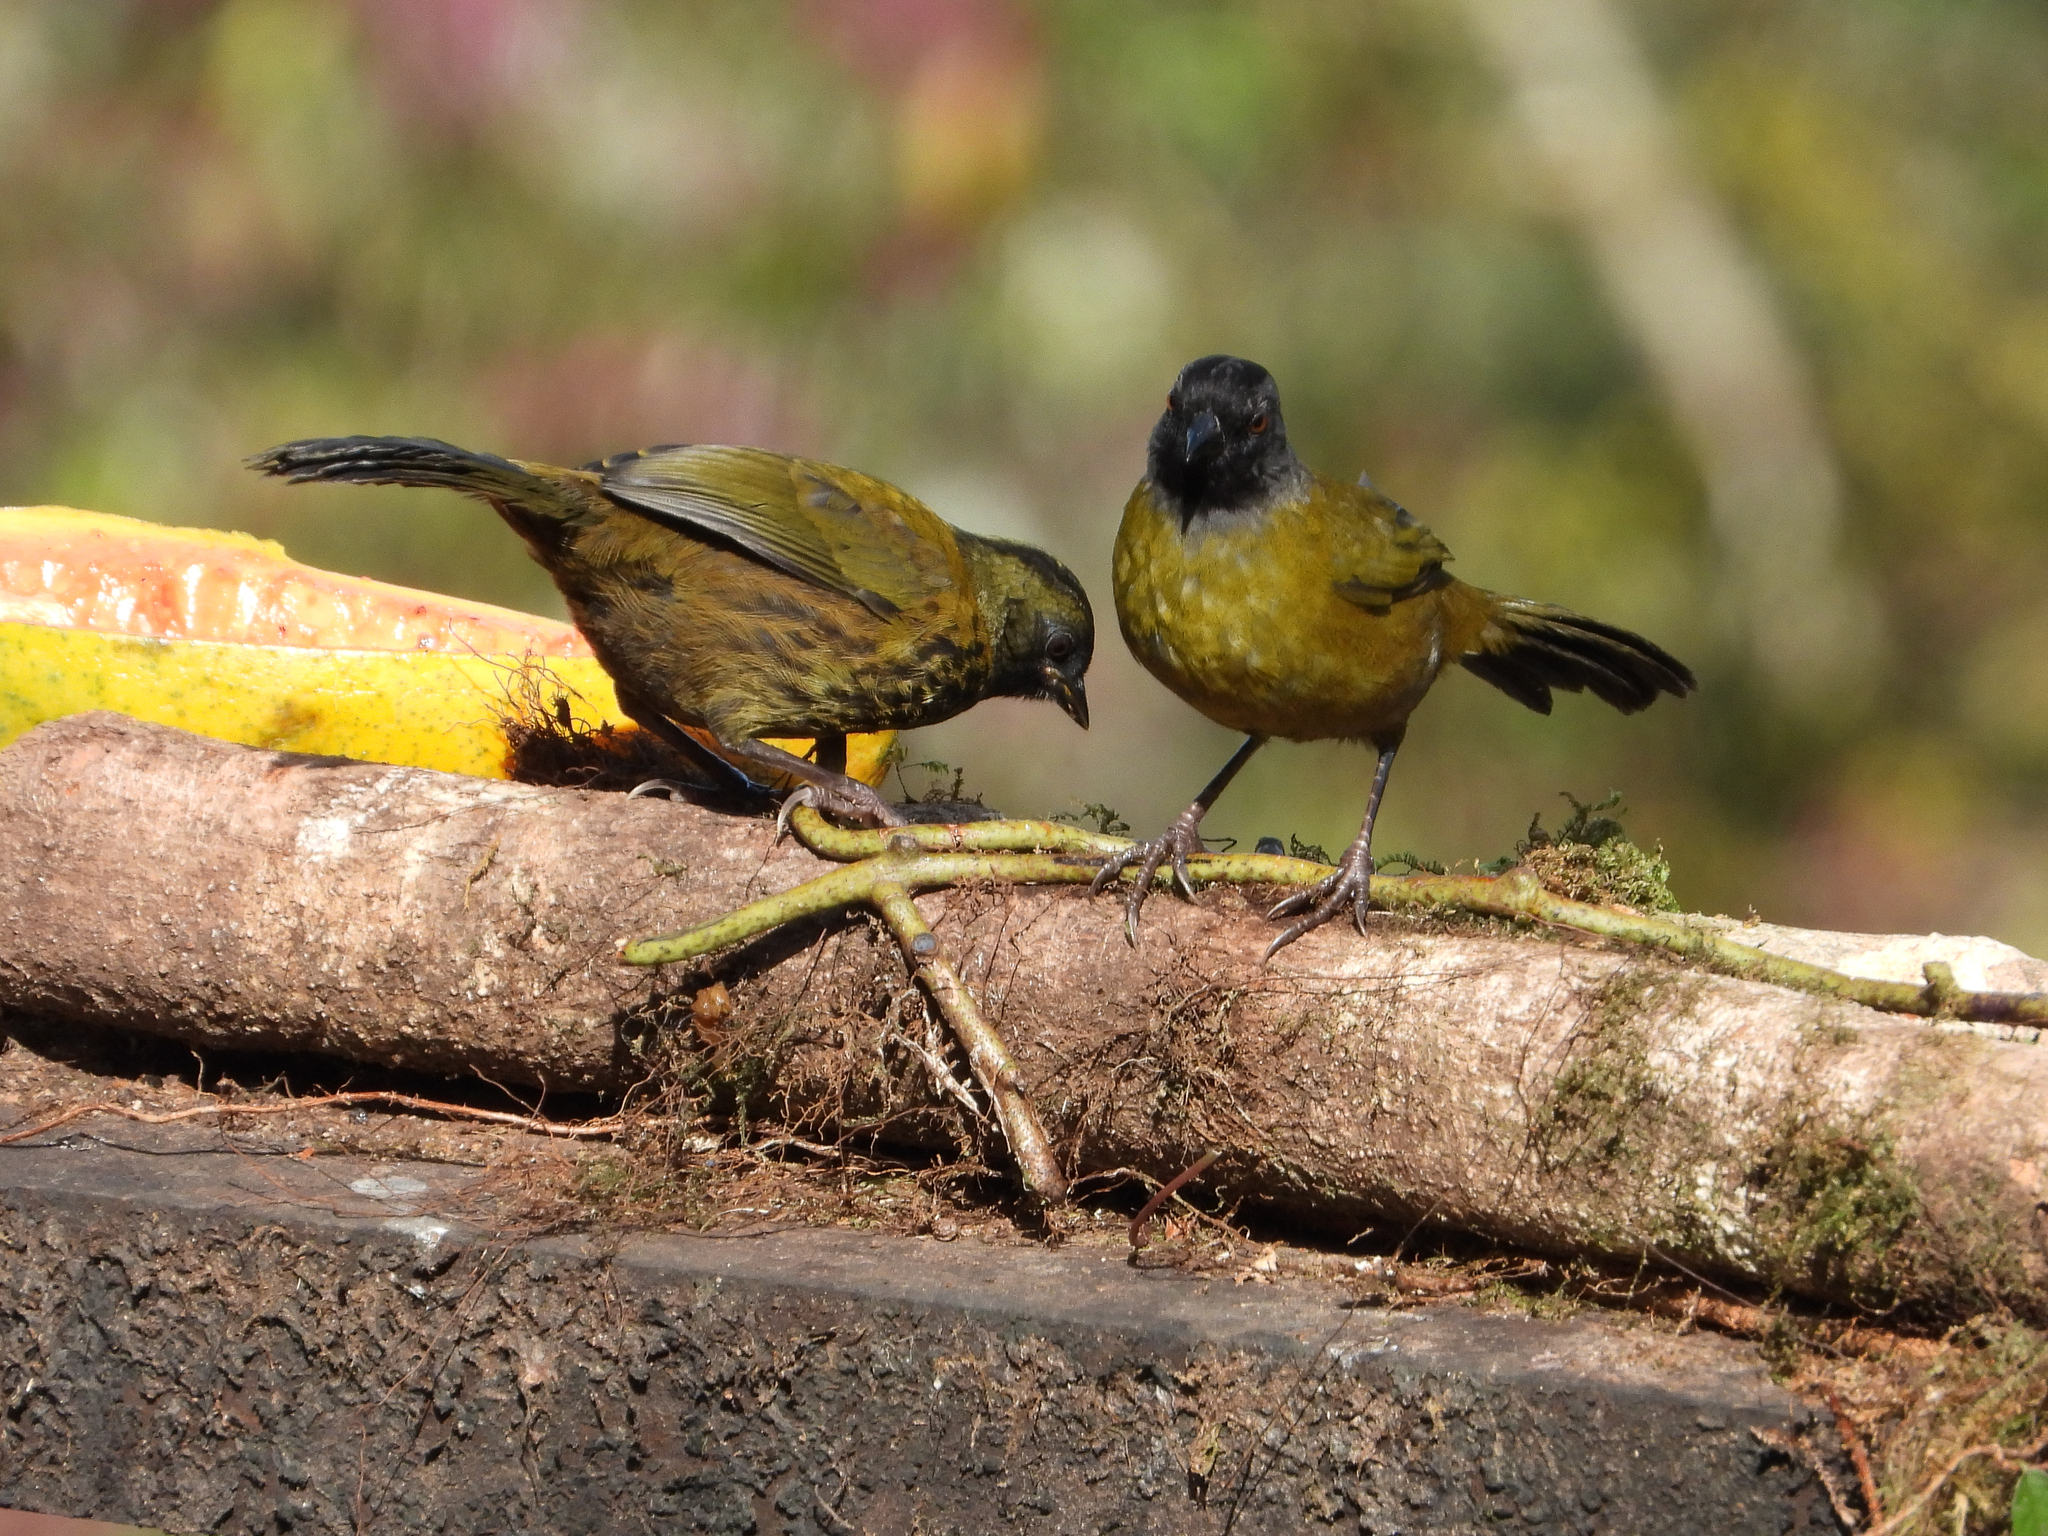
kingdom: Animalia
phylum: Chordata
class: Aves
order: Passeriformes
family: Passerellidae
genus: Pezopetes
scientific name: Pezopetes capitalis
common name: Large-footed finch
